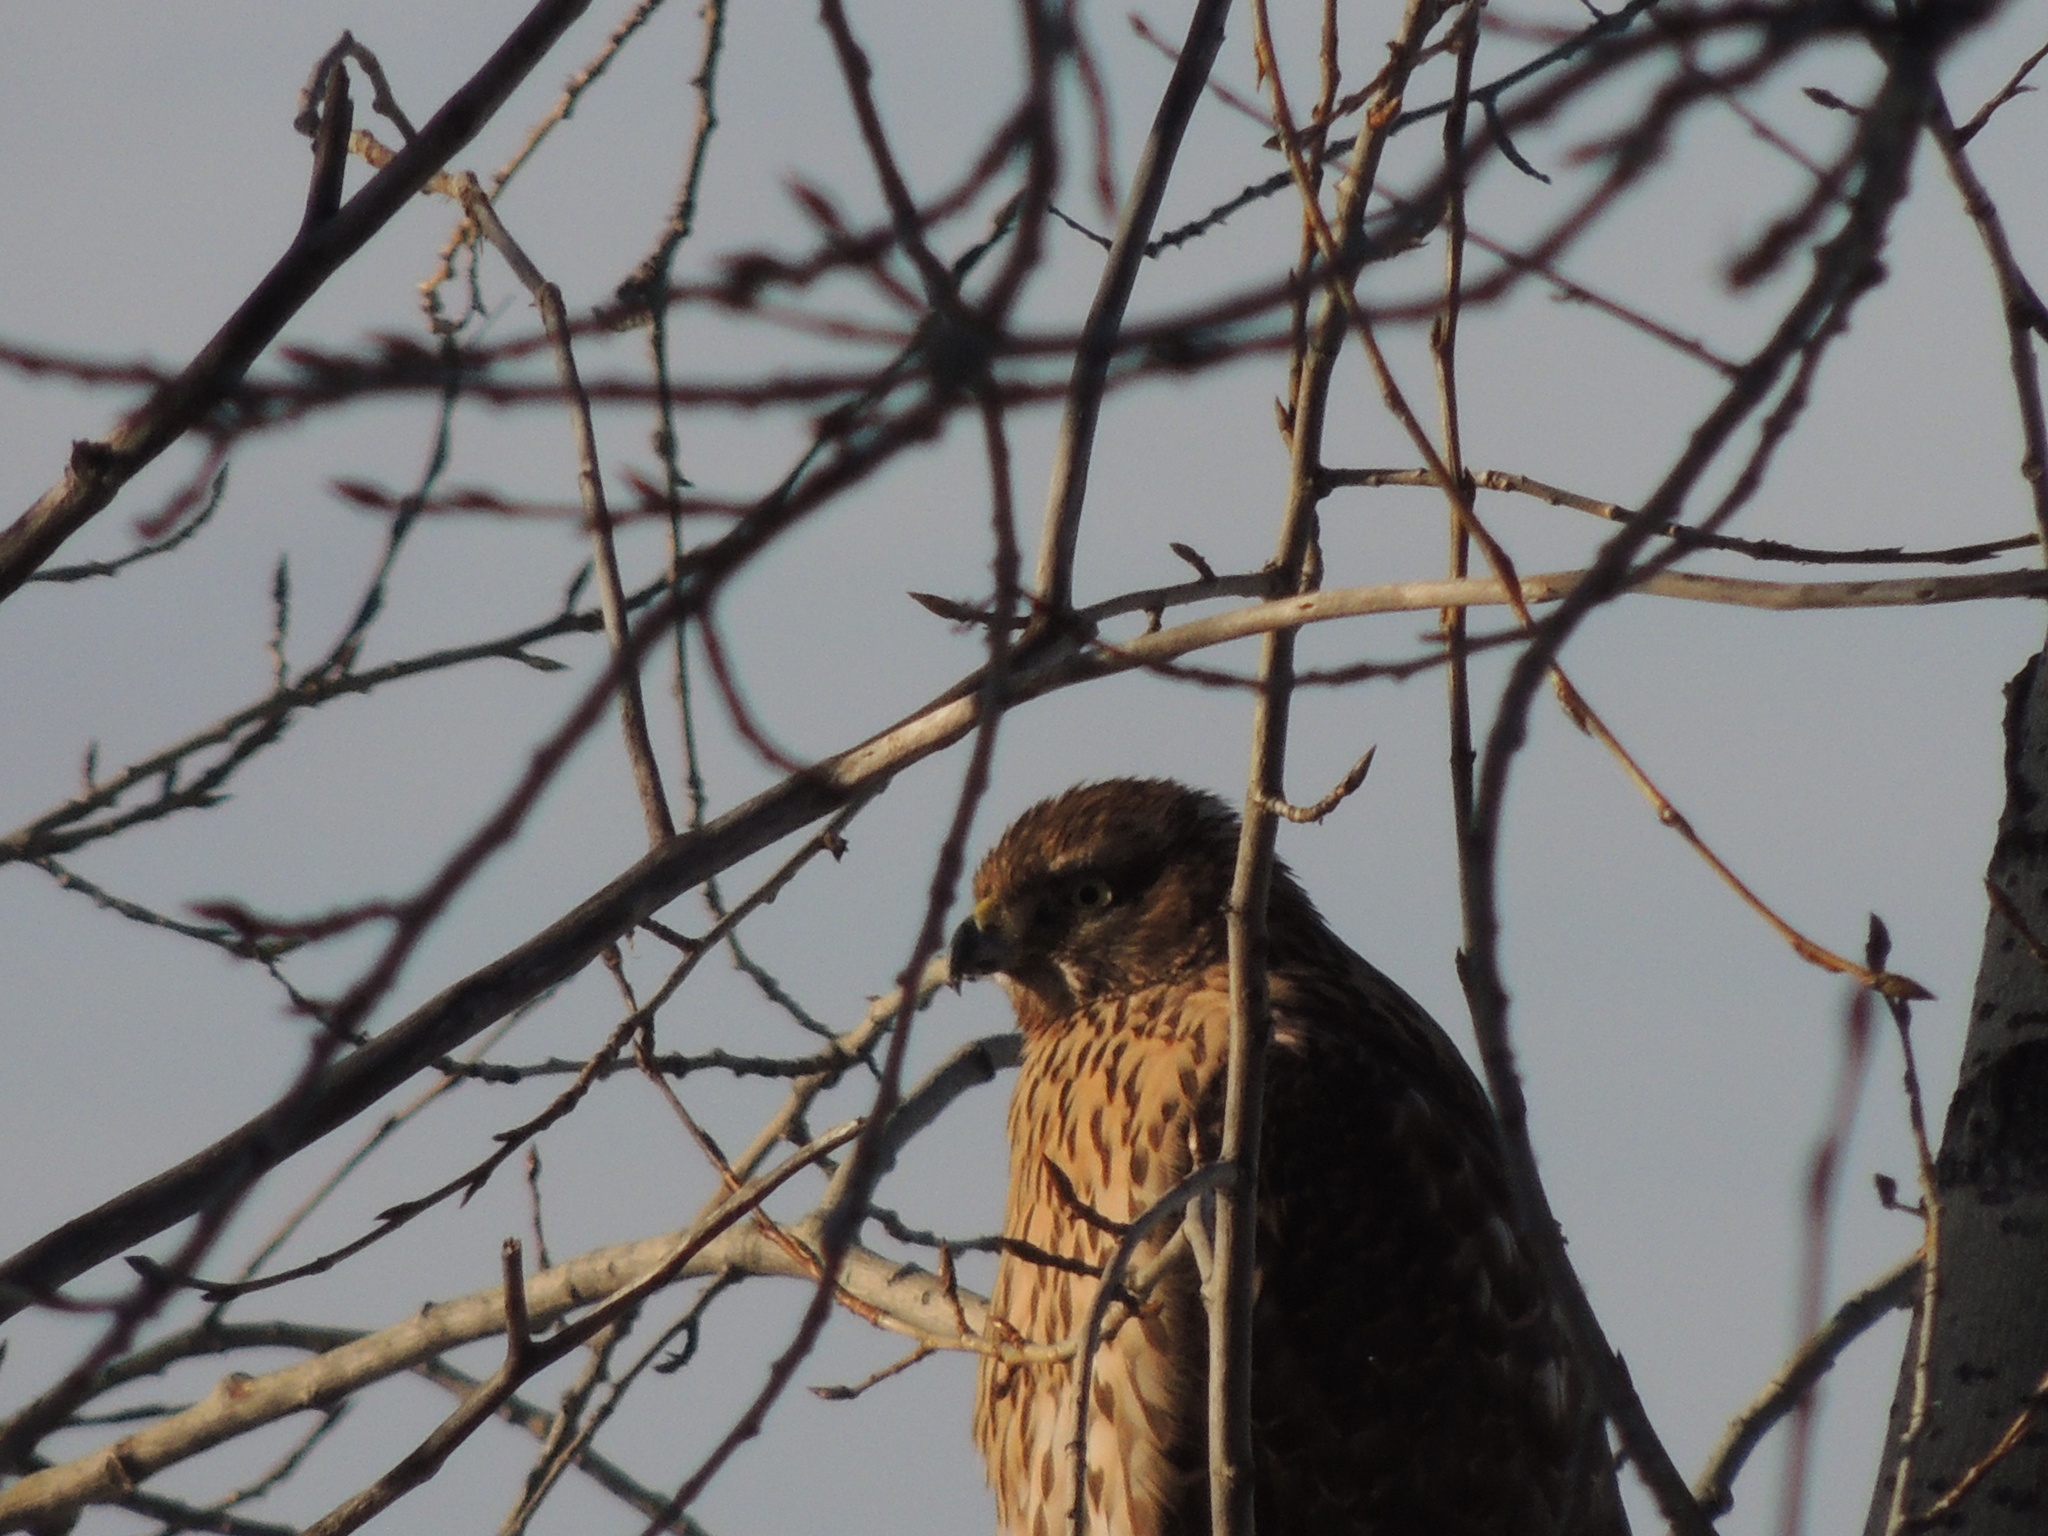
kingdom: Animalia
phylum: Chordata
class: Aves
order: Accipitriformes
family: Accipitridae
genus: Accipiter
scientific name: Accipiter gentilis
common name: Northern goshawk
